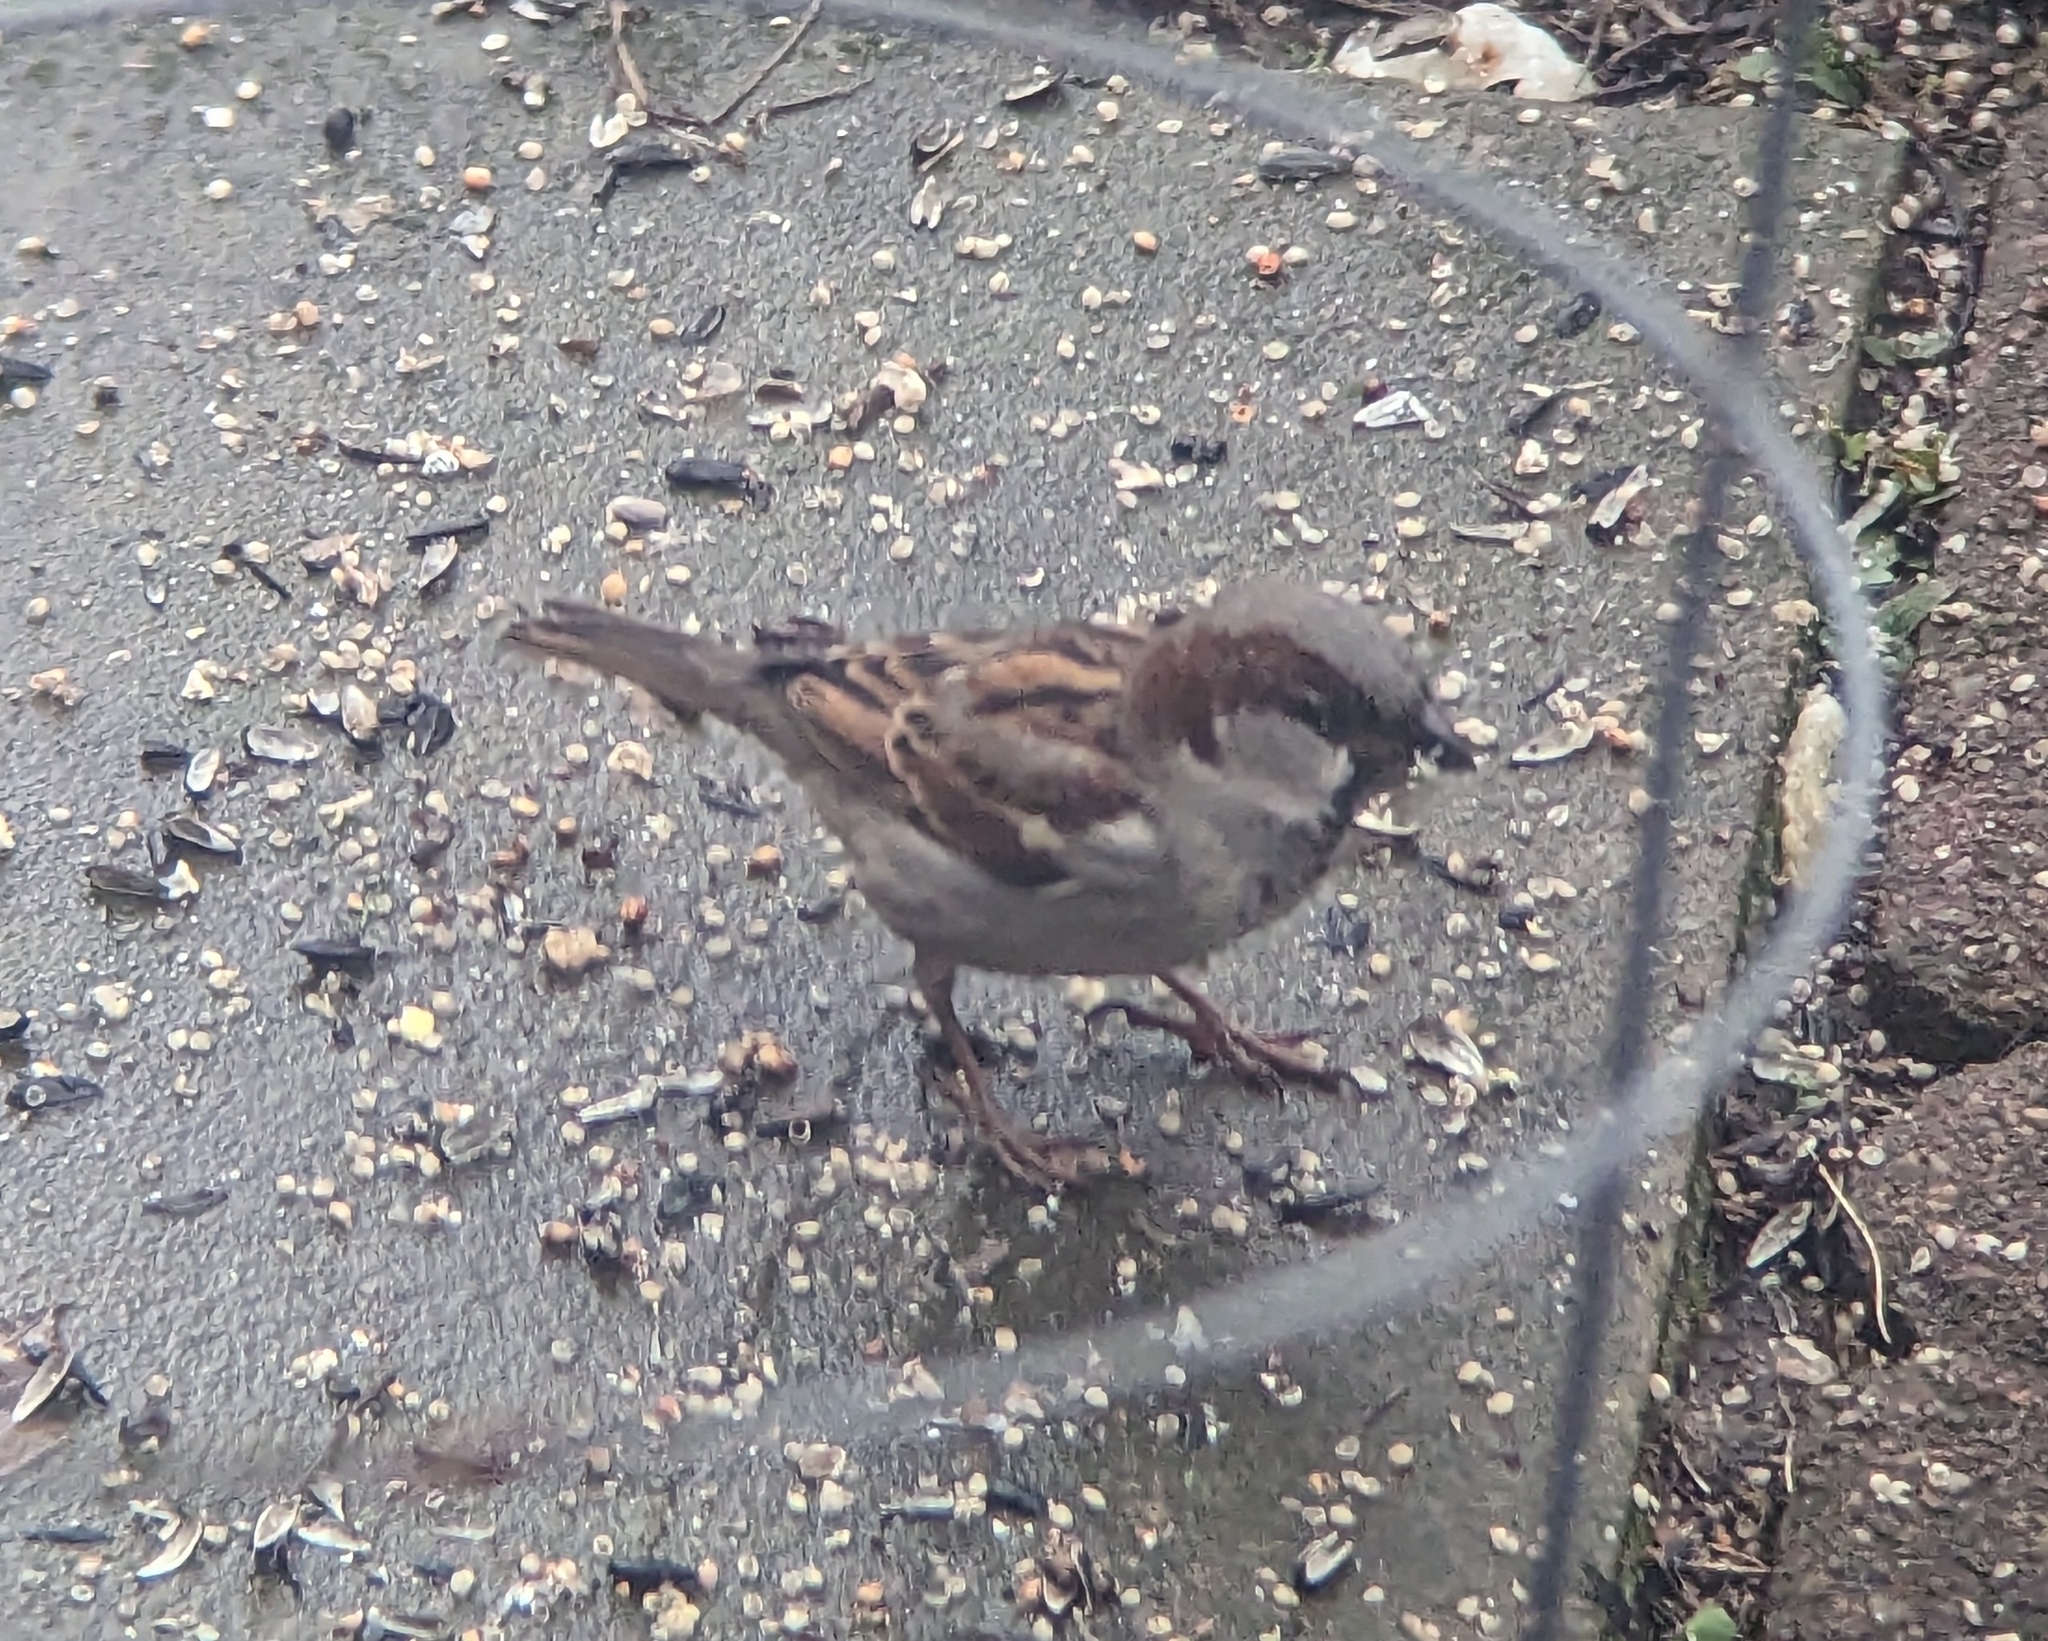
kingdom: Animalia
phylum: Chordata
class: Aves
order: Passeriformes
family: Passeridae
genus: Passer
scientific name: Passer domesticus
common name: House sparrow
